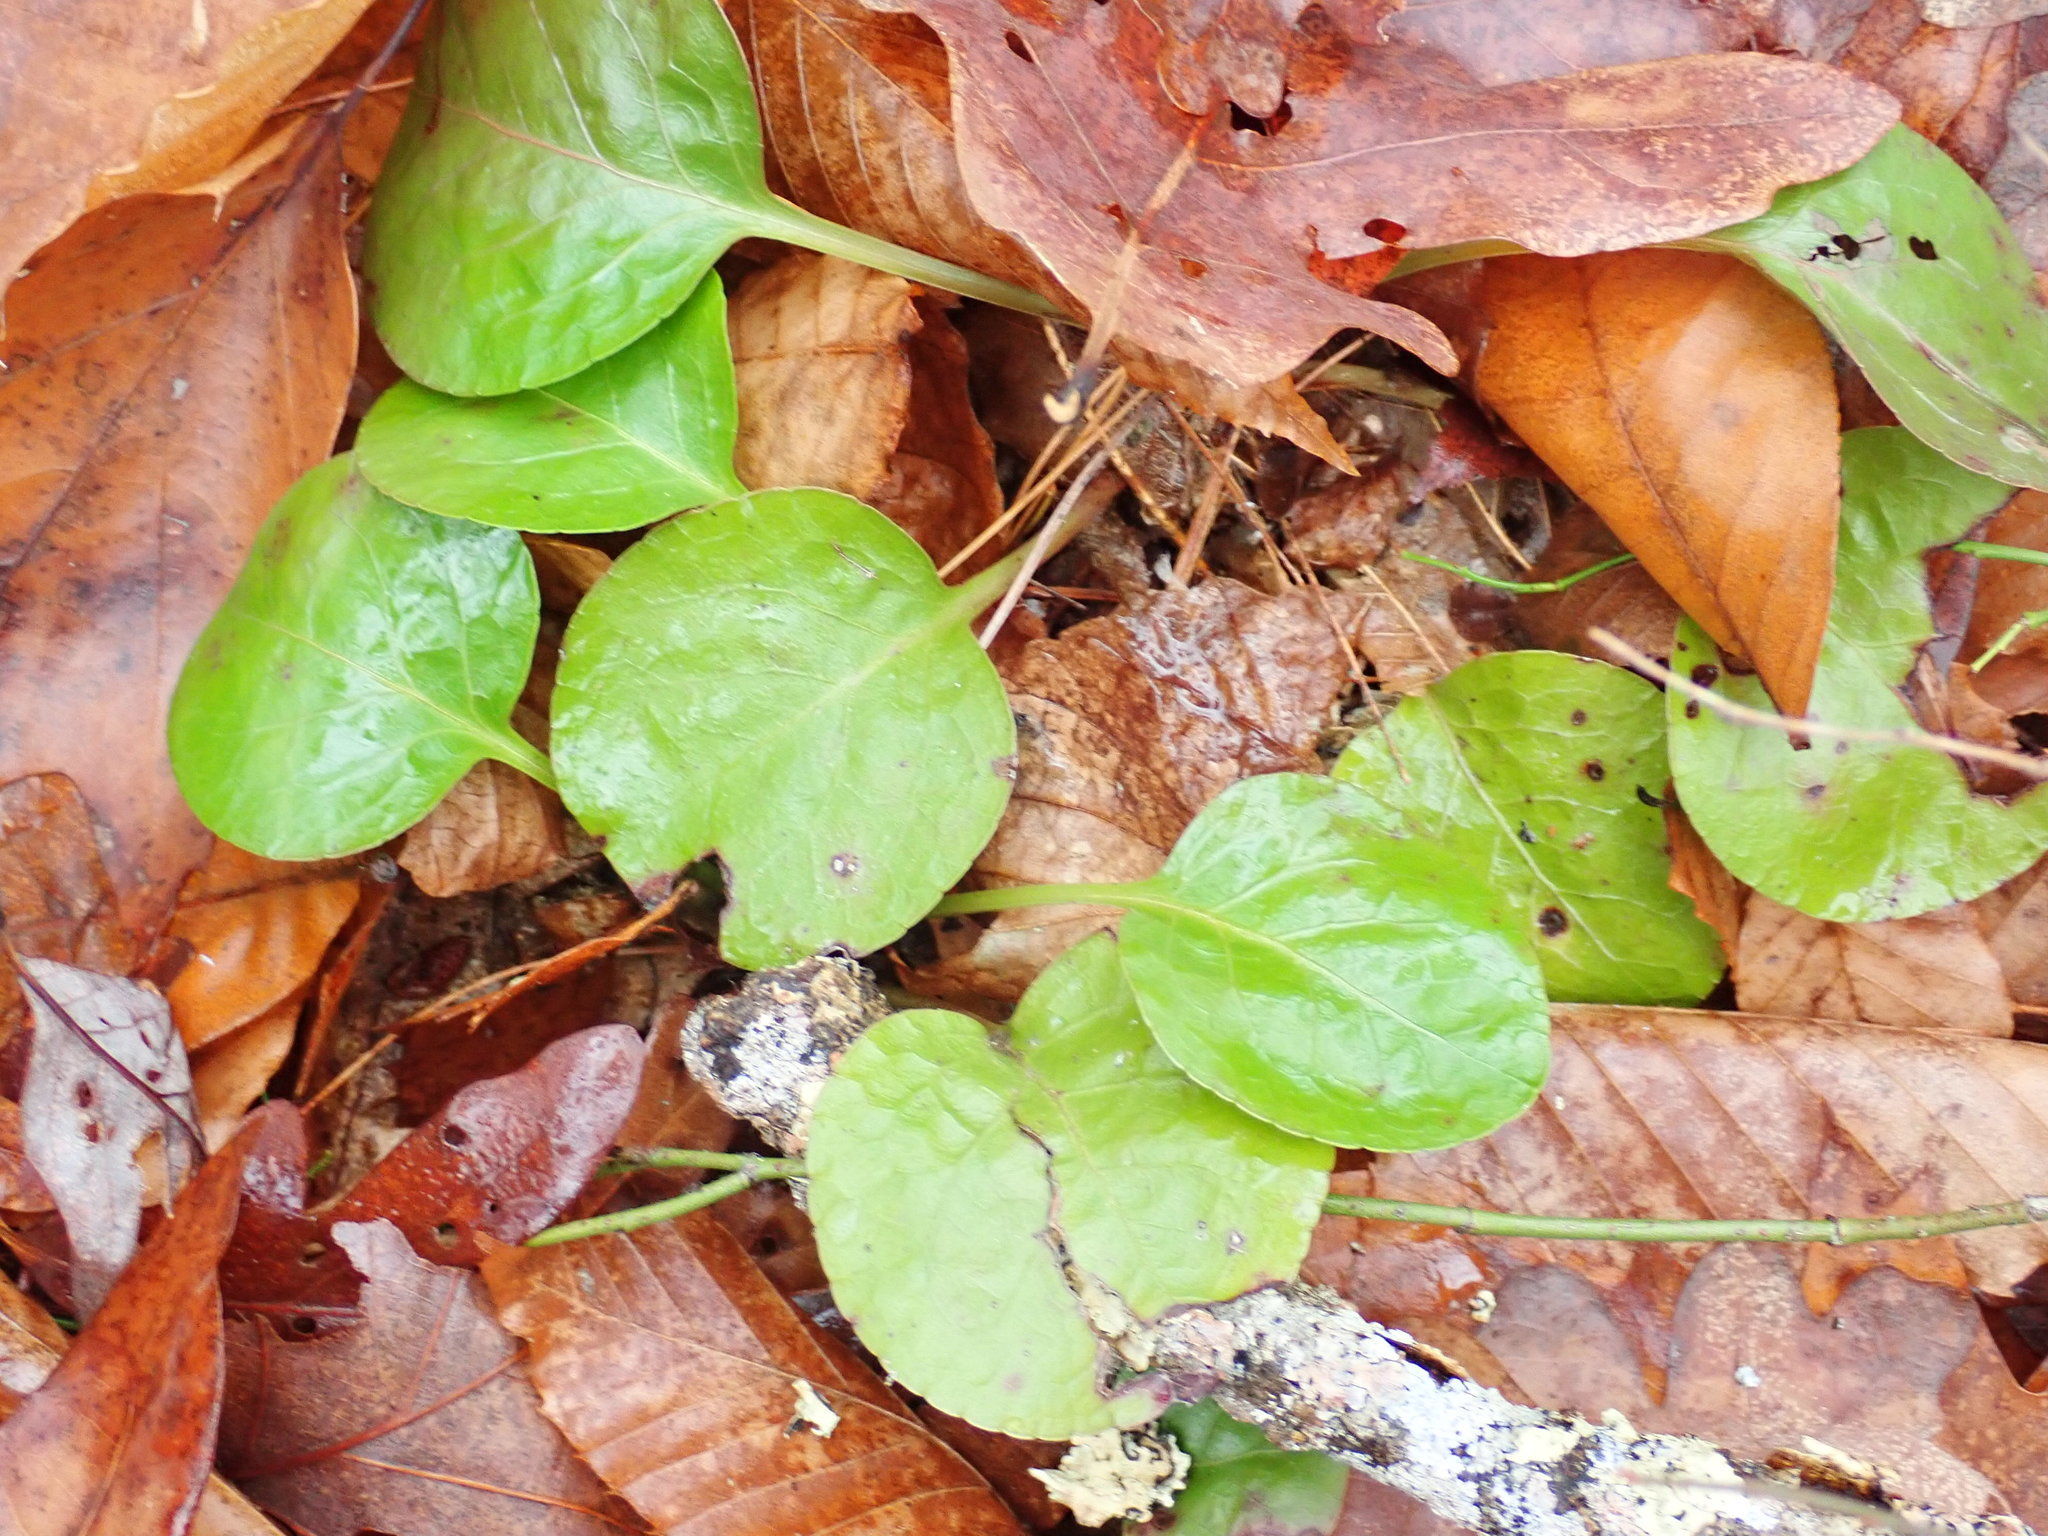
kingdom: Plantae
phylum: Tracheophyta
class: Magnoliopsida
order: Ericales
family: Ericaceae
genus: Pyrola
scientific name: Pyrola americana
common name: American wintergreen
